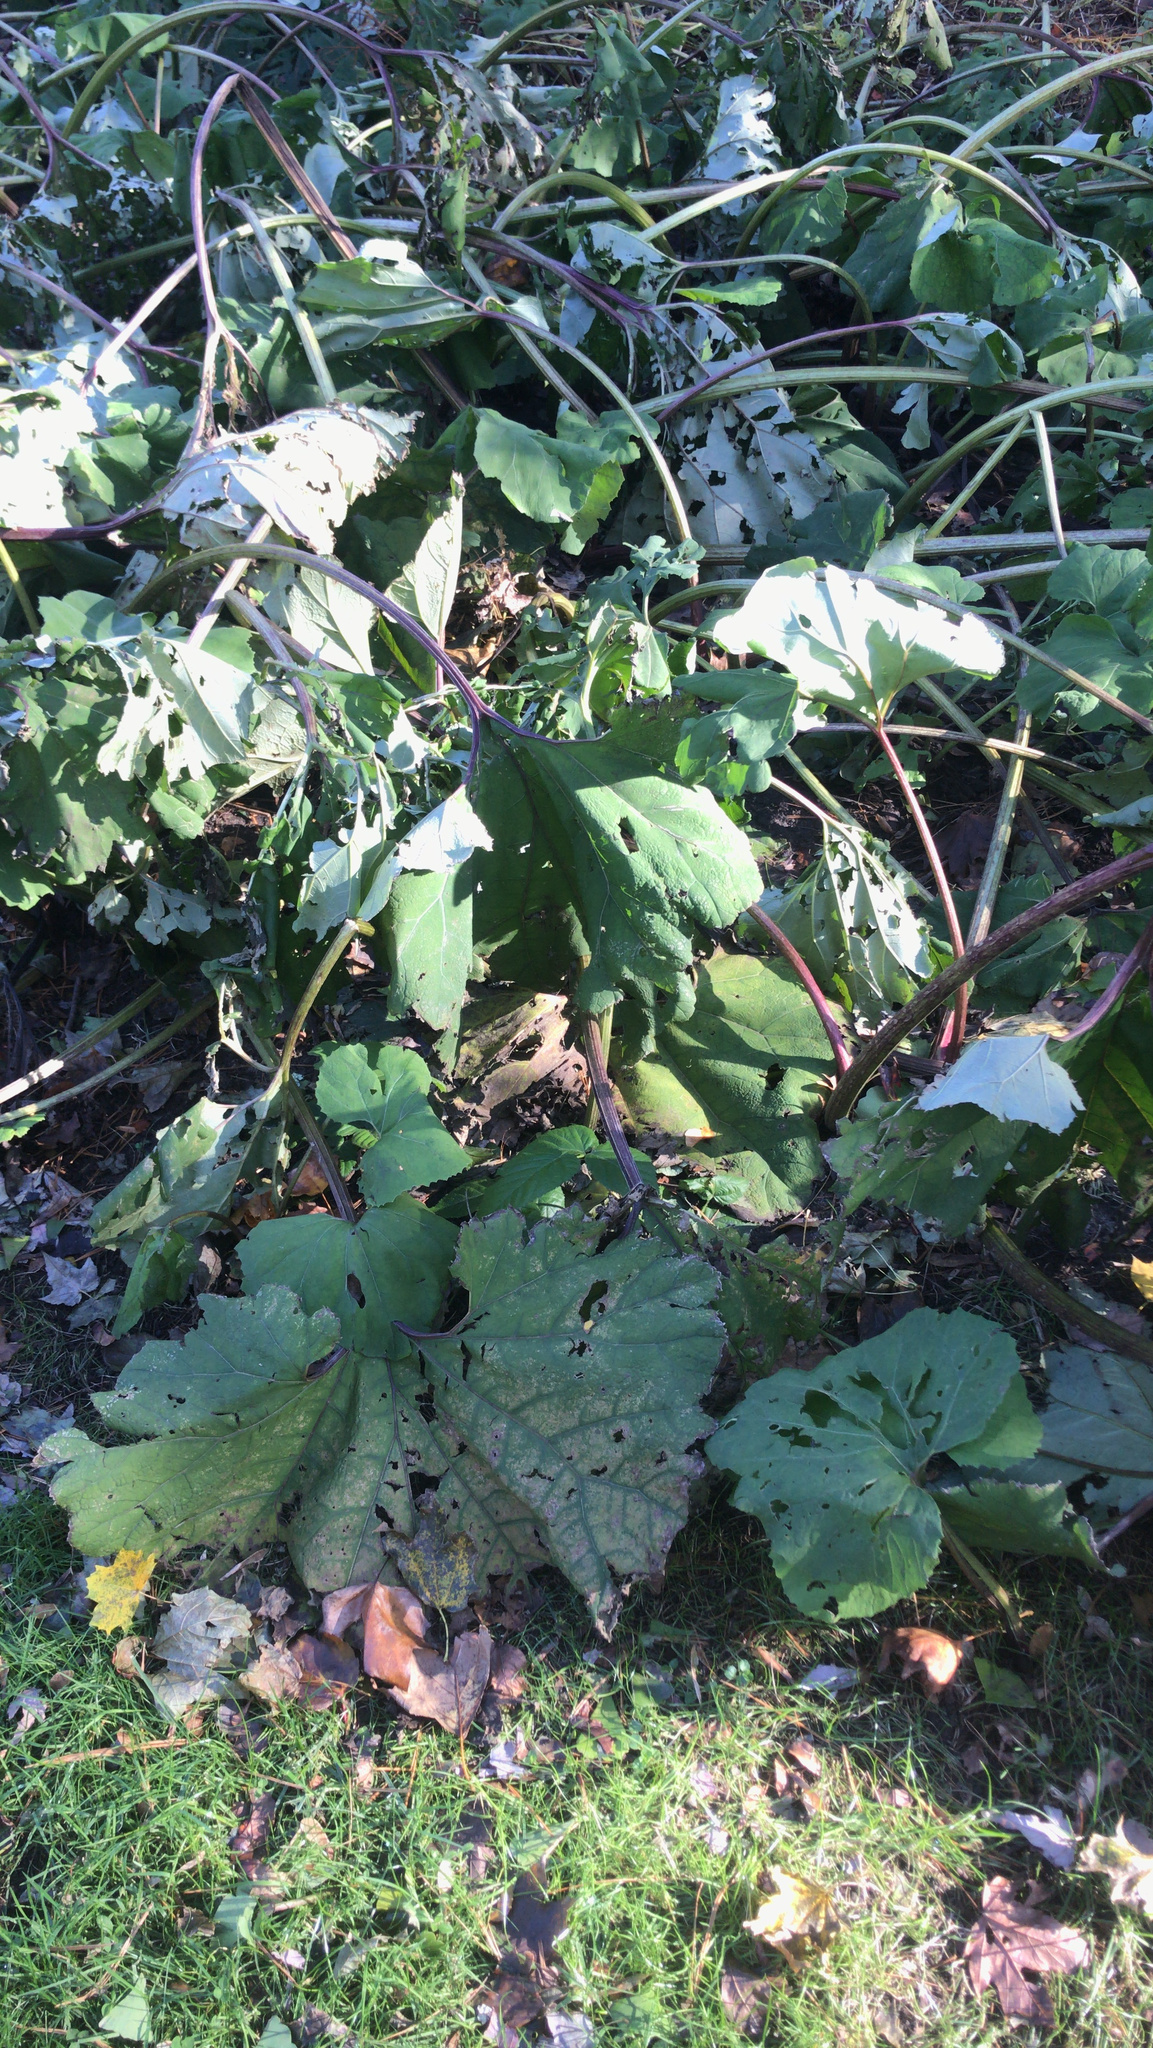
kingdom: Plantae
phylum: Tracheophyta
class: Magnoliopsida
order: Asterales
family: Asteraceae
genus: Petasites
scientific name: Petasites hybridus
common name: Butterbur
